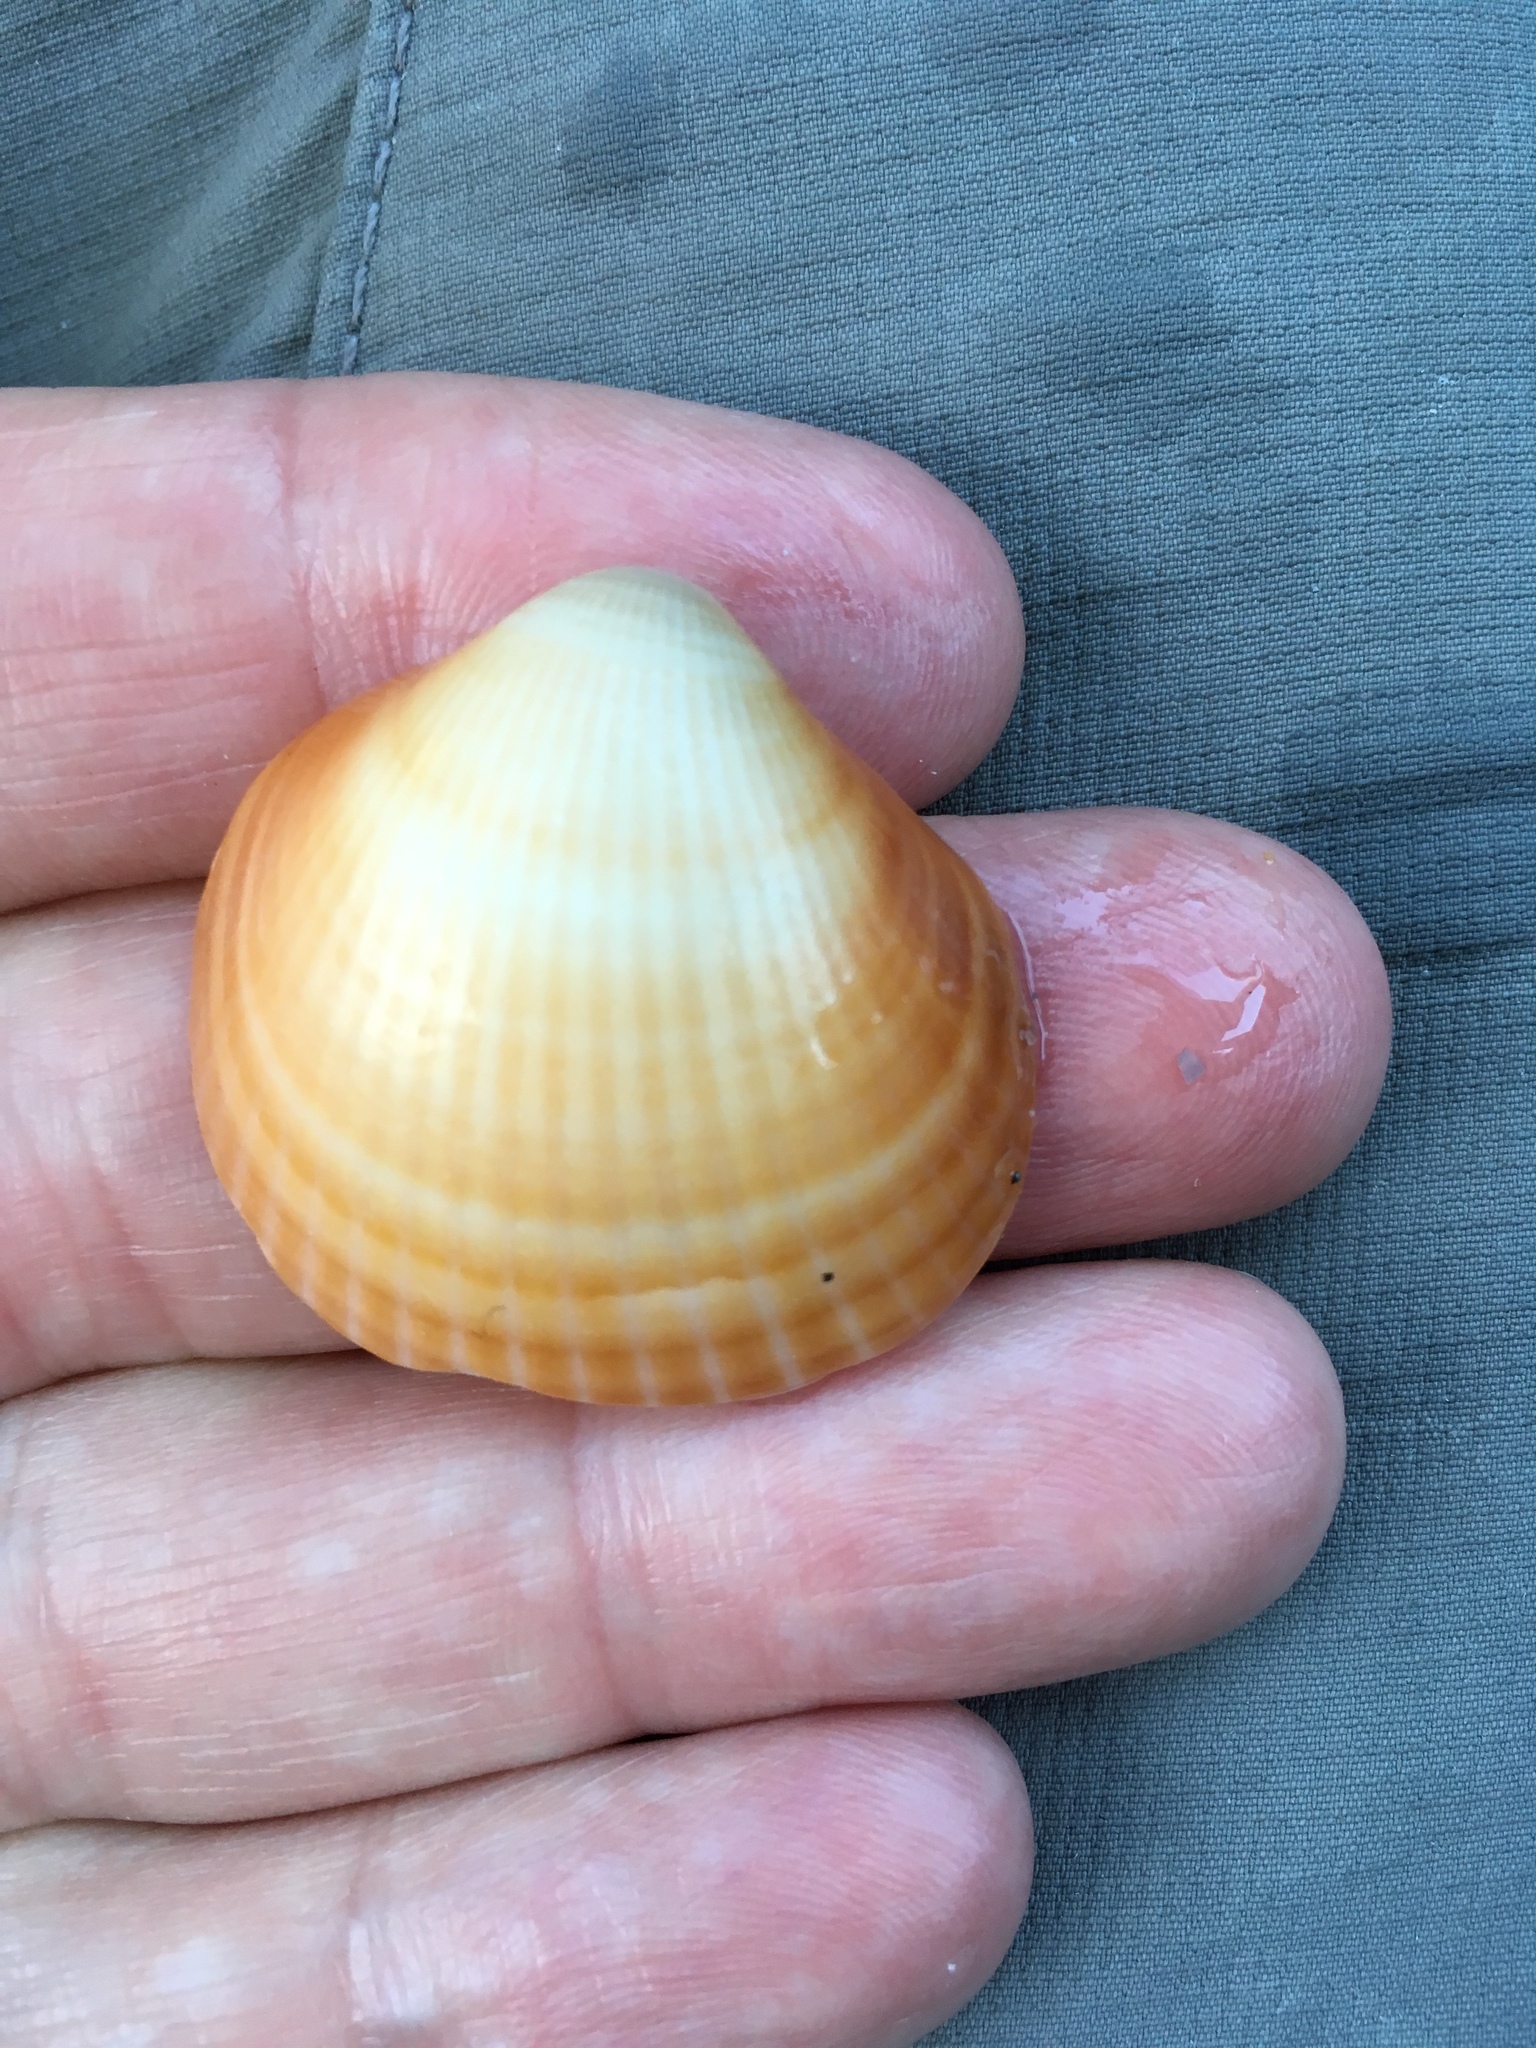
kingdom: Animalia
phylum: Mollusca
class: Bivalvia
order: Arcida
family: Glycymerididae
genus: Glycymeris
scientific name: Glycymeris spectralis
